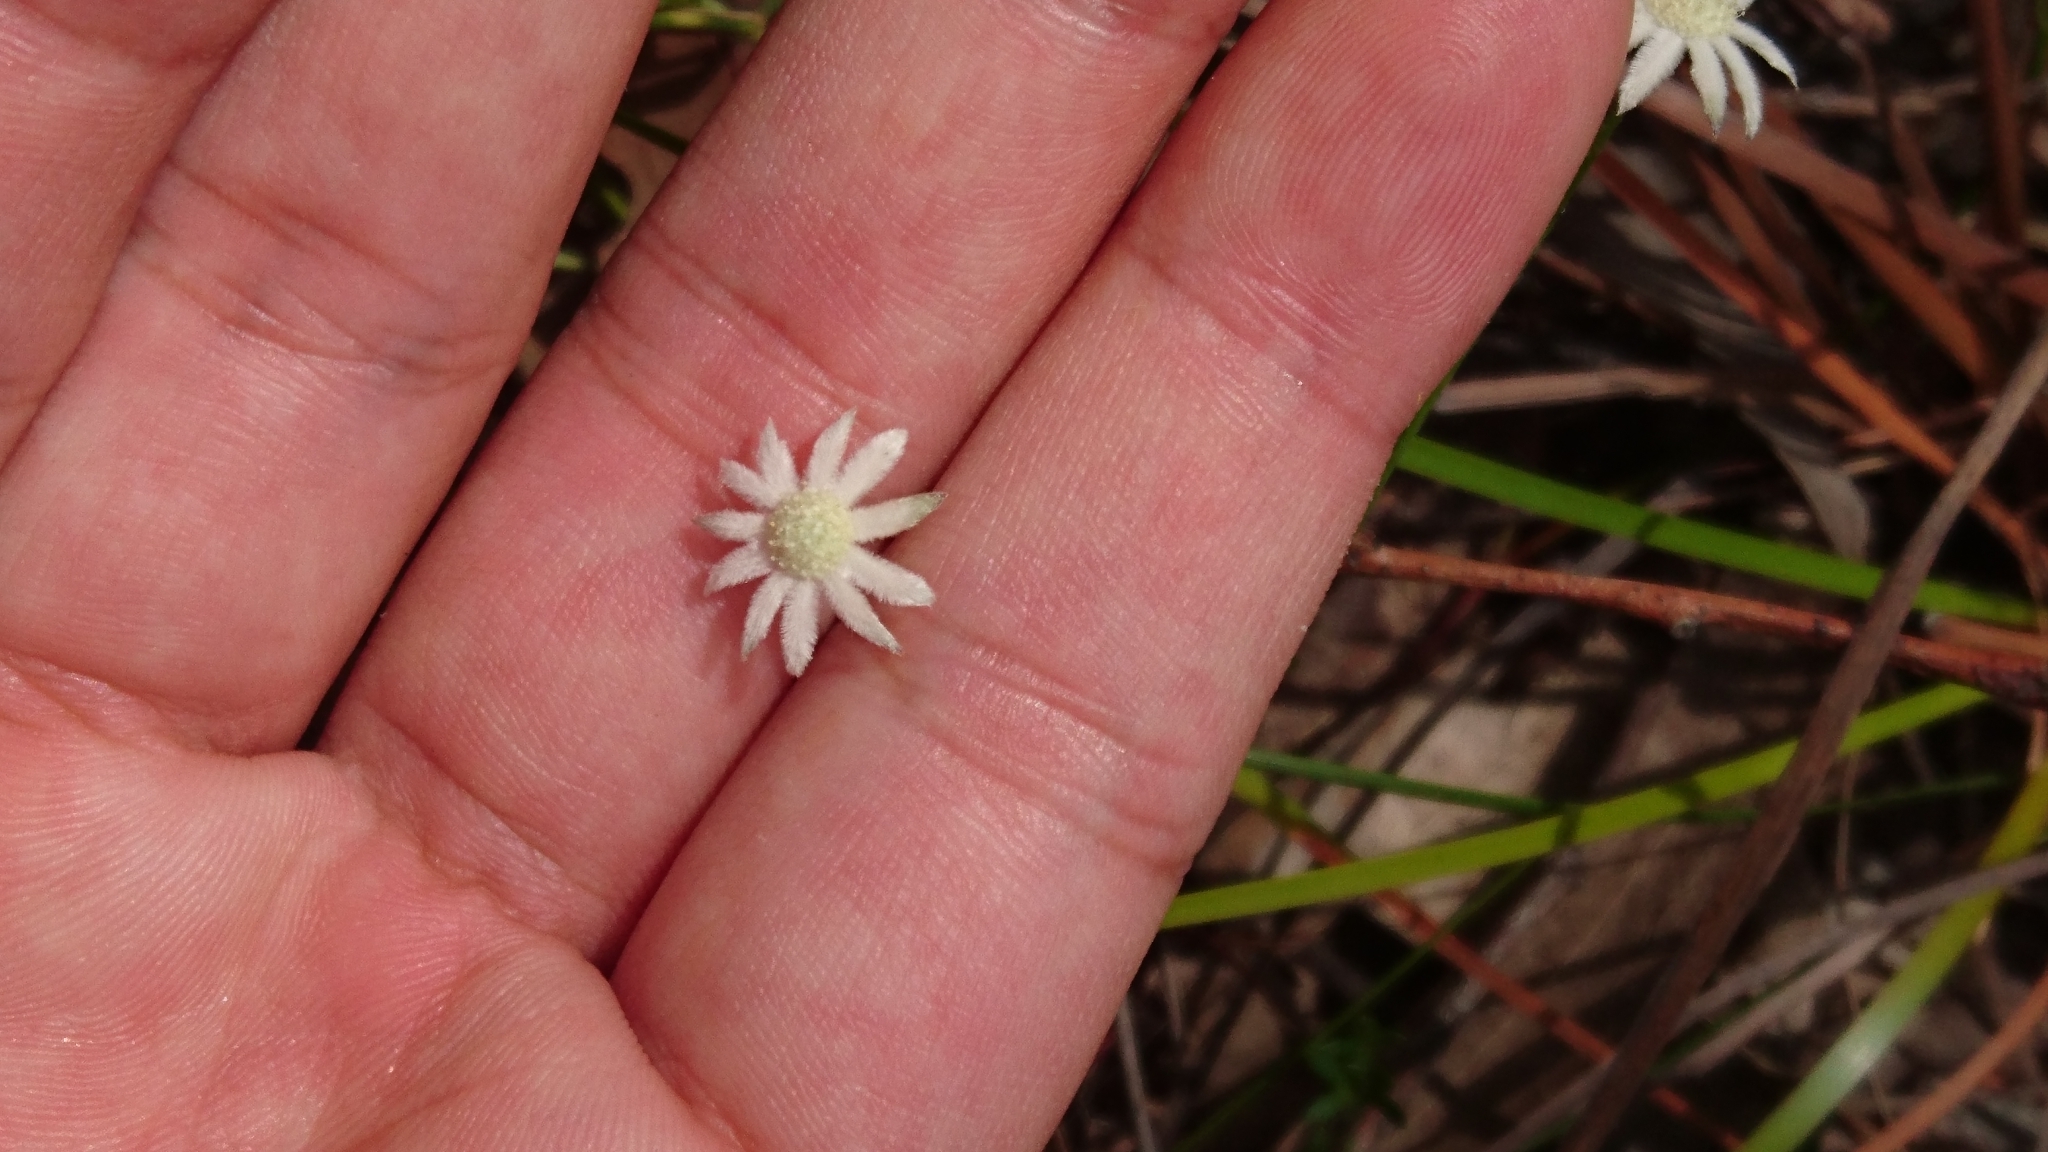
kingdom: Plantae
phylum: Tracheophyta
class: Magnoliopsida
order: Apiales
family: Apiaceae
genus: Actinotus
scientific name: Actinotus minor
